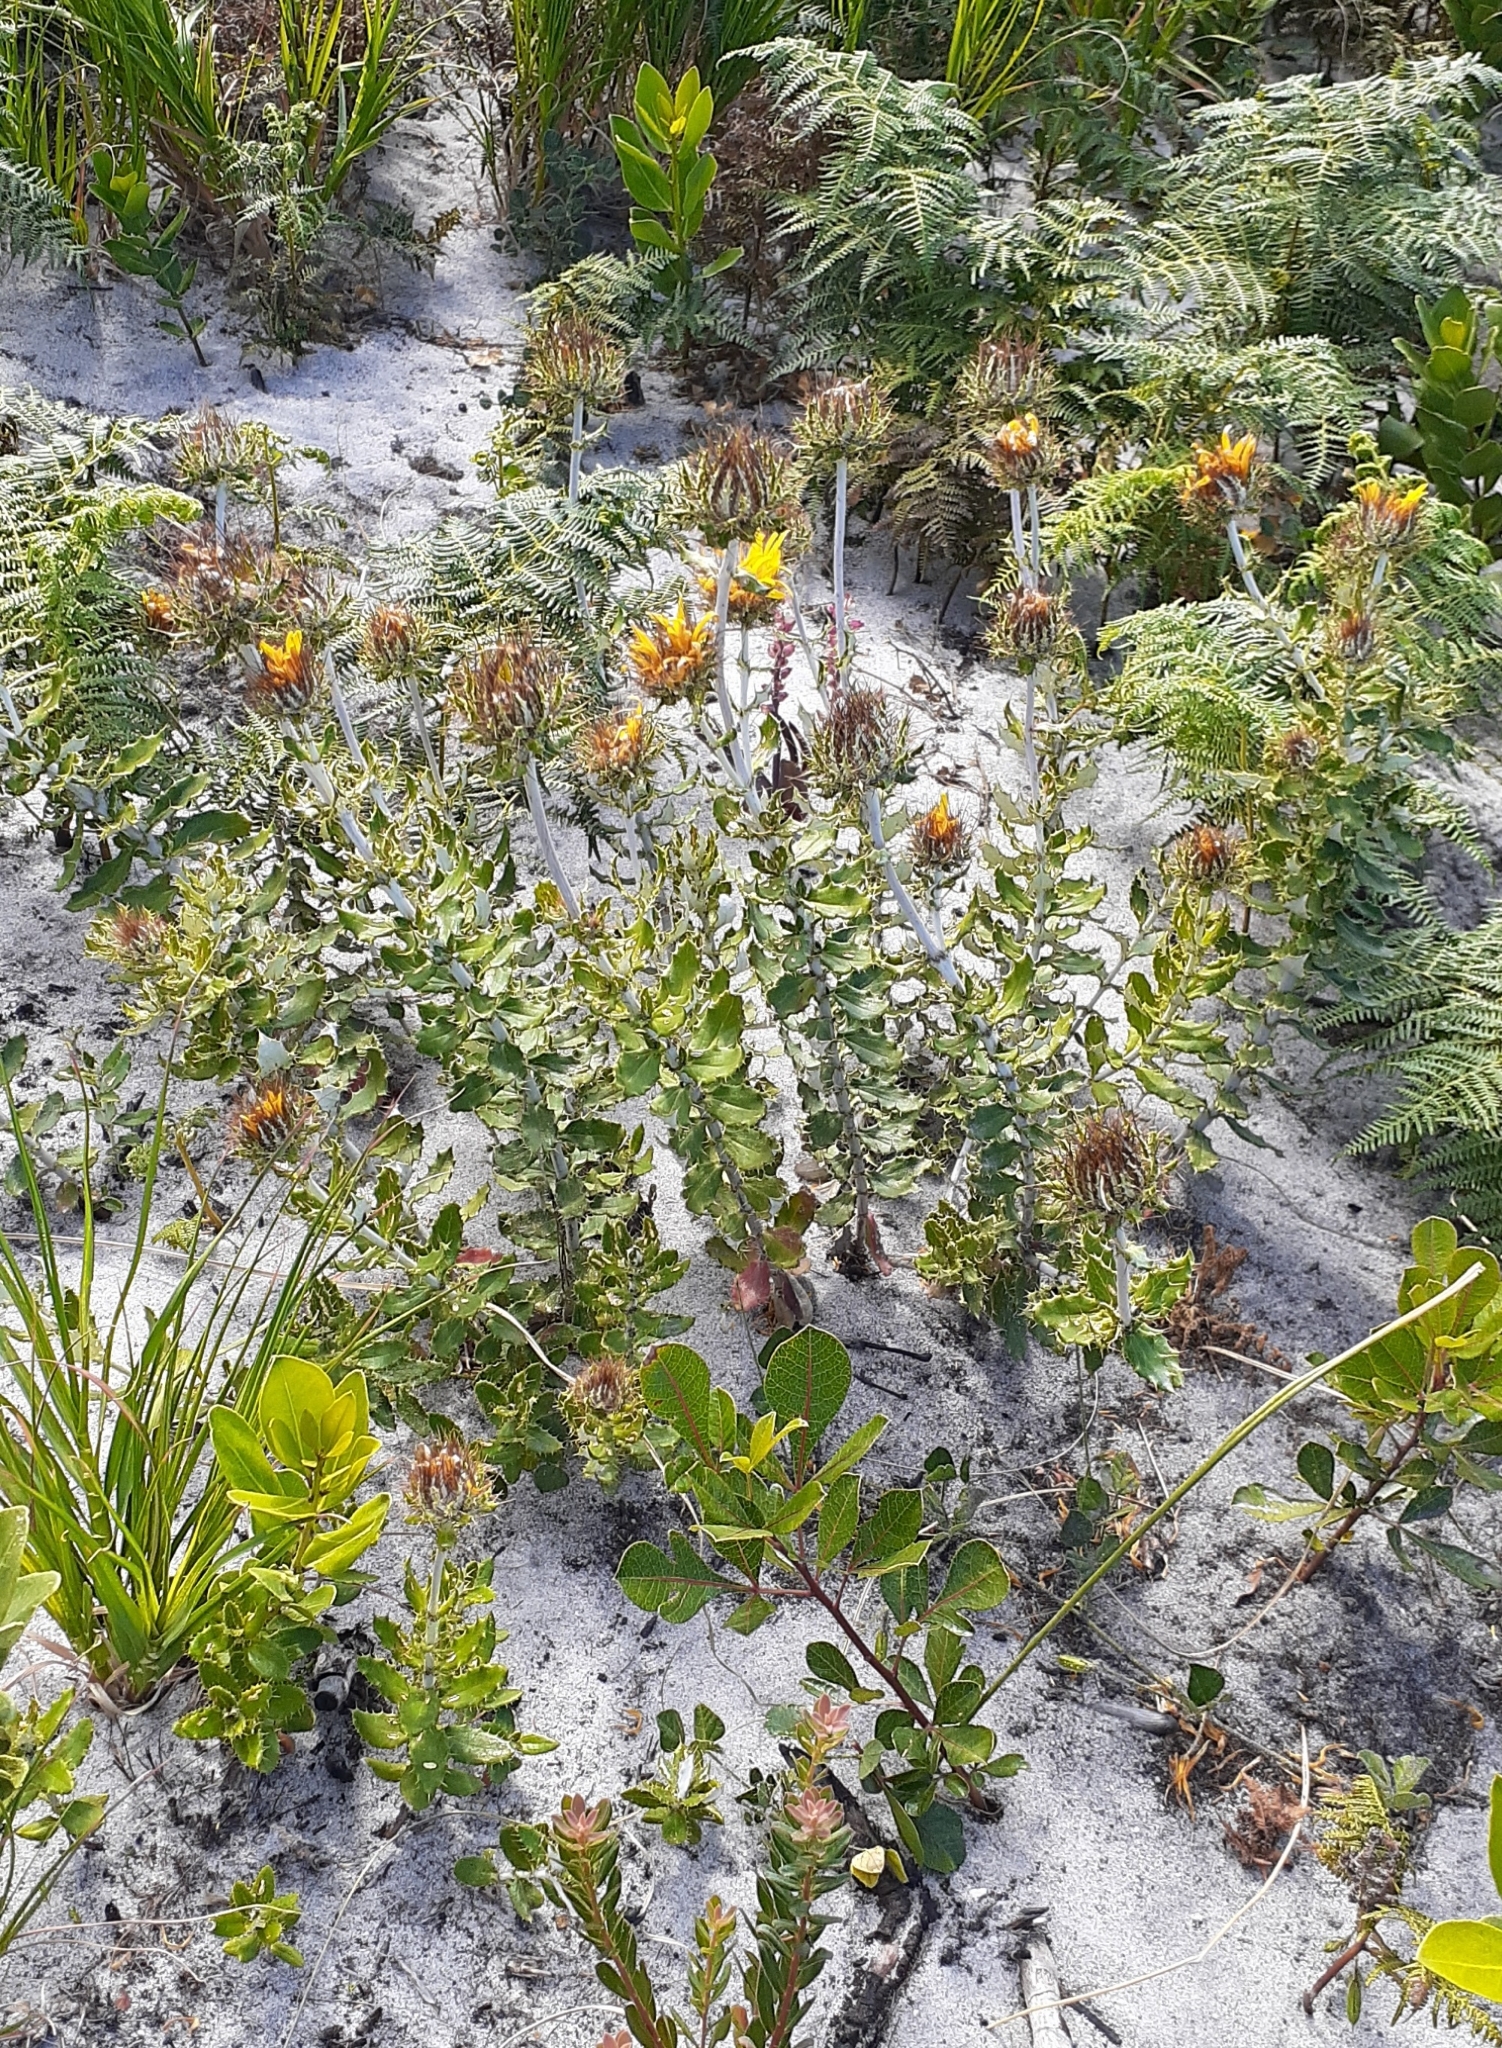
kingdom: Plantae
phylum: Tracheophyta
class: Magnoliopsida
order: Asterales
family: Asteraceae
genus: Berkheya
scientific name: Berkheya barbata
